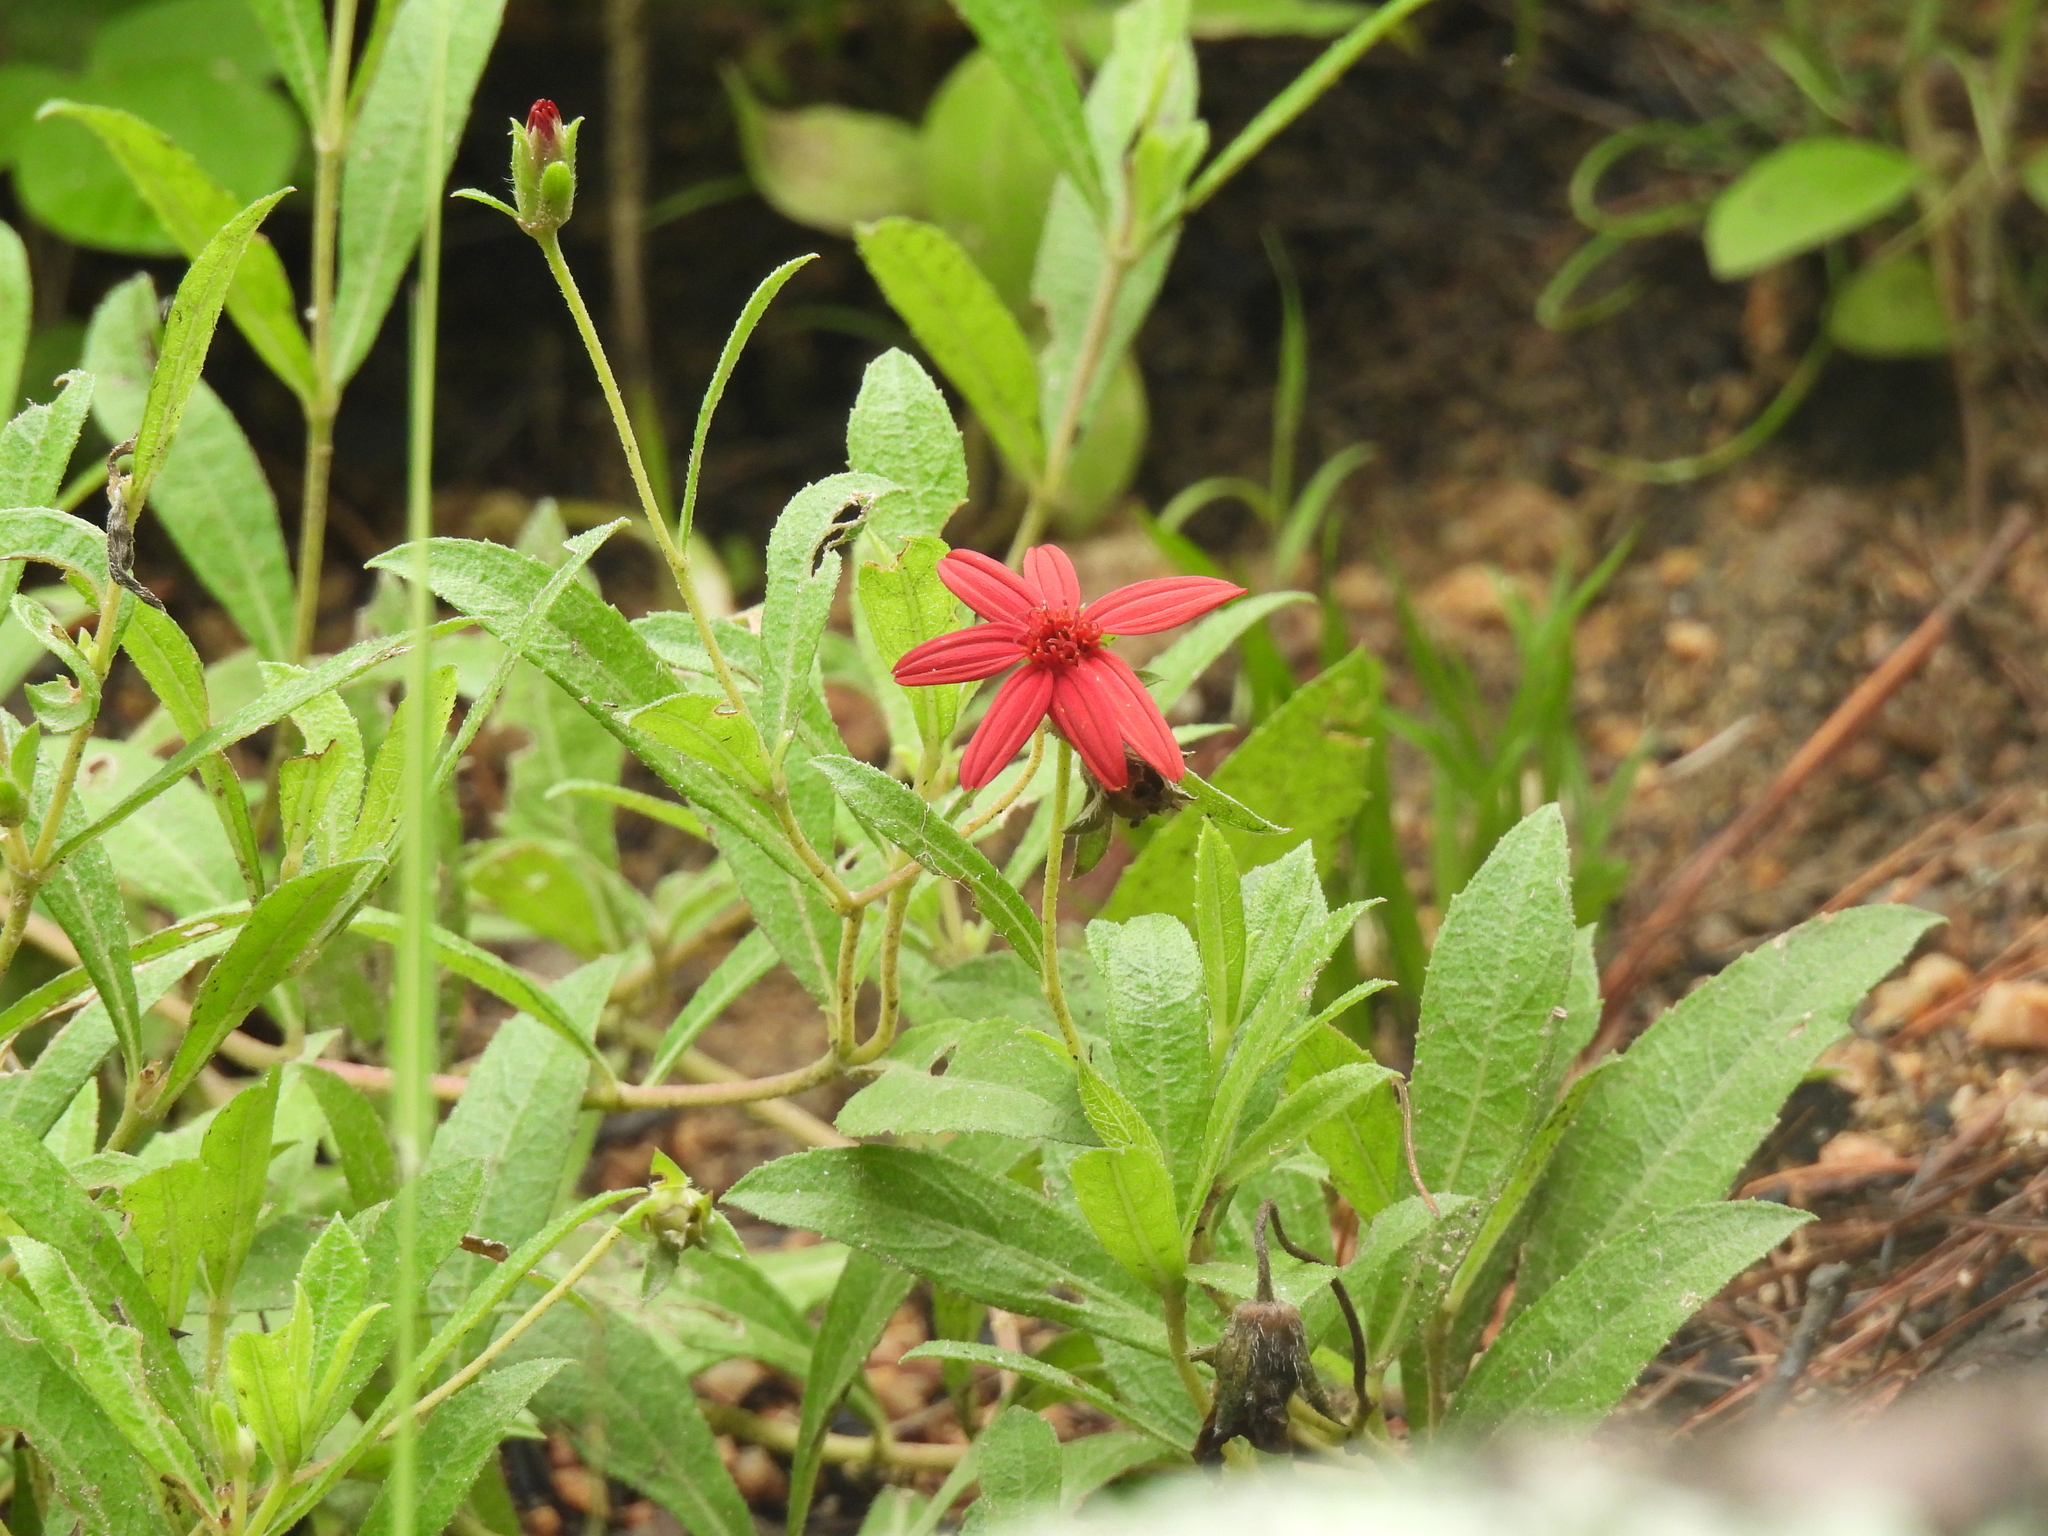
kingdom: Plantae
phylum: Tracheophyta
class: Magnoliopsida
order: Asterales
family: Asteraceae
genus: Wedelia
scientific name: Wedelia purpurea
